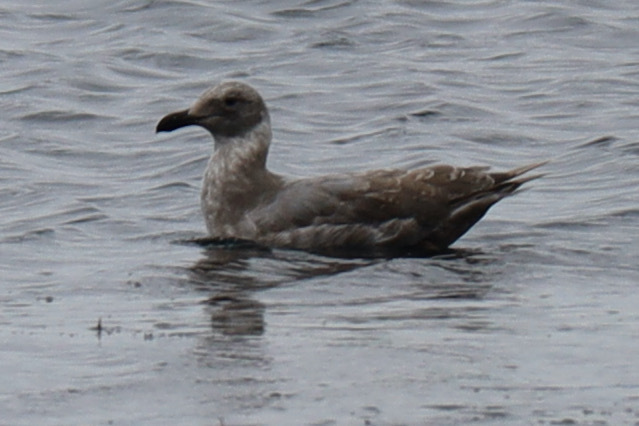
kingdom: Animalia
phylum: Chordata
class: Aves
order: Charadriiformes
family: Laridae
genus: Larus
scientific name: Larus
